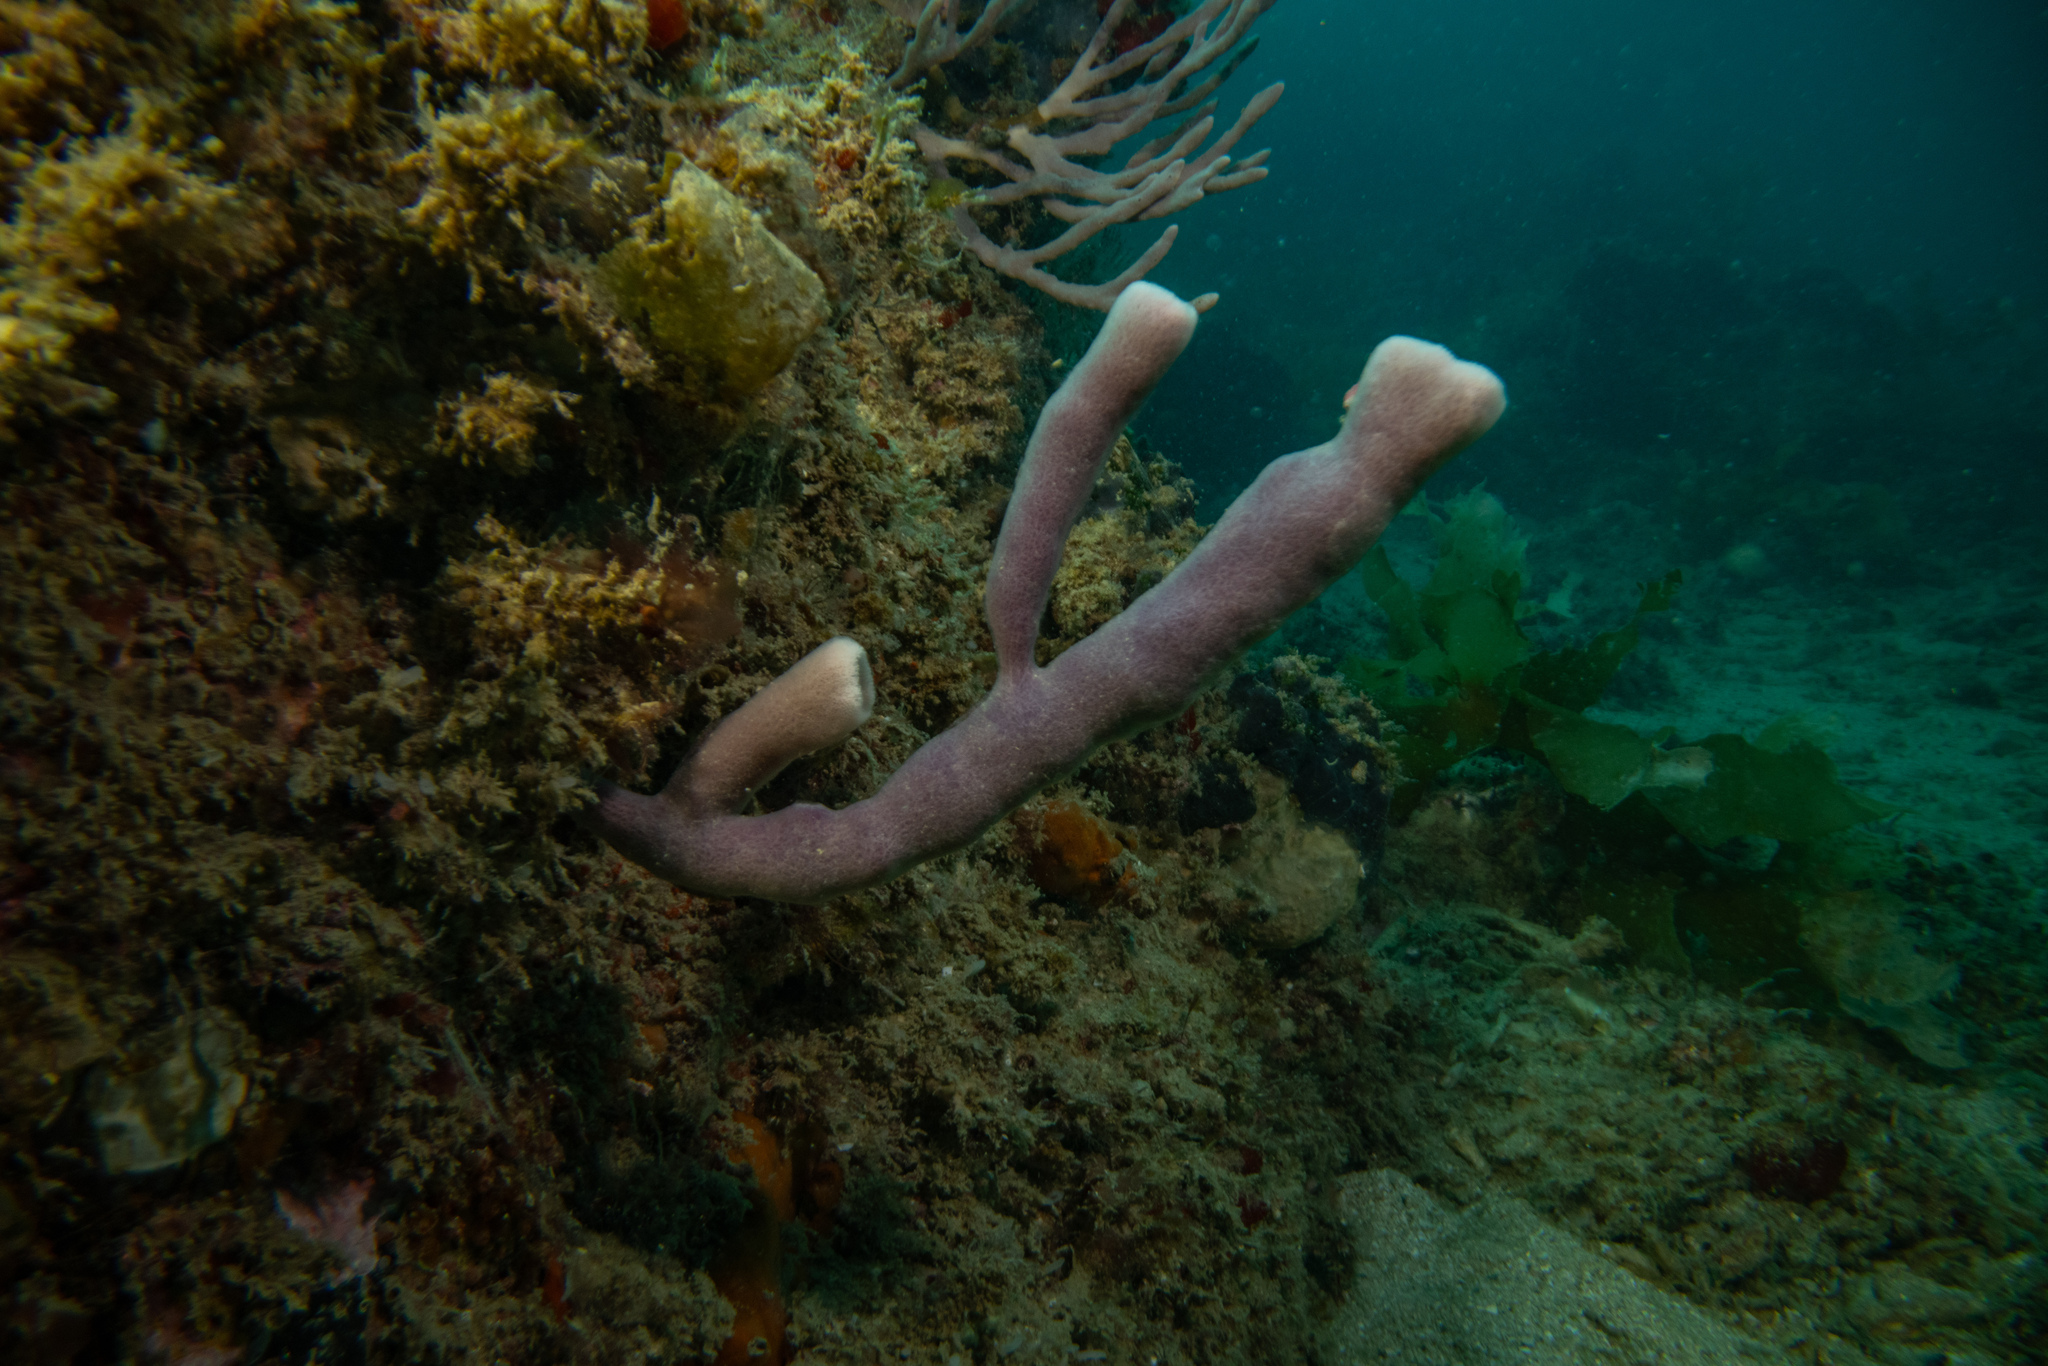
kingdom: Animalia
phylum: Porifera
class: Demospongiae
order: Haplosclerida
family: Callyspongiidae
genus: Dactylia
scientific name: Dactylia varia
